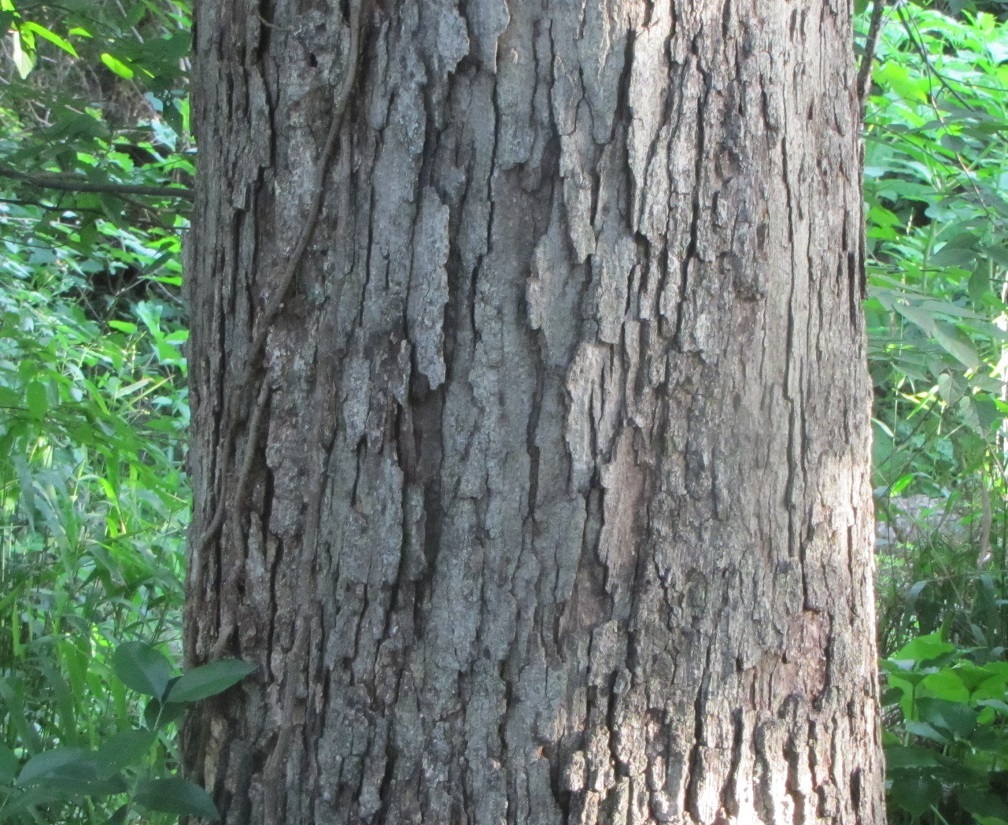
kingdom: Plantae
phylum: Tracheophyta
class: Magnoliopsida
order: Fagales
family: Fagaceae
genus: Quercus
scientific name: Quercus alba
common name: White oak
